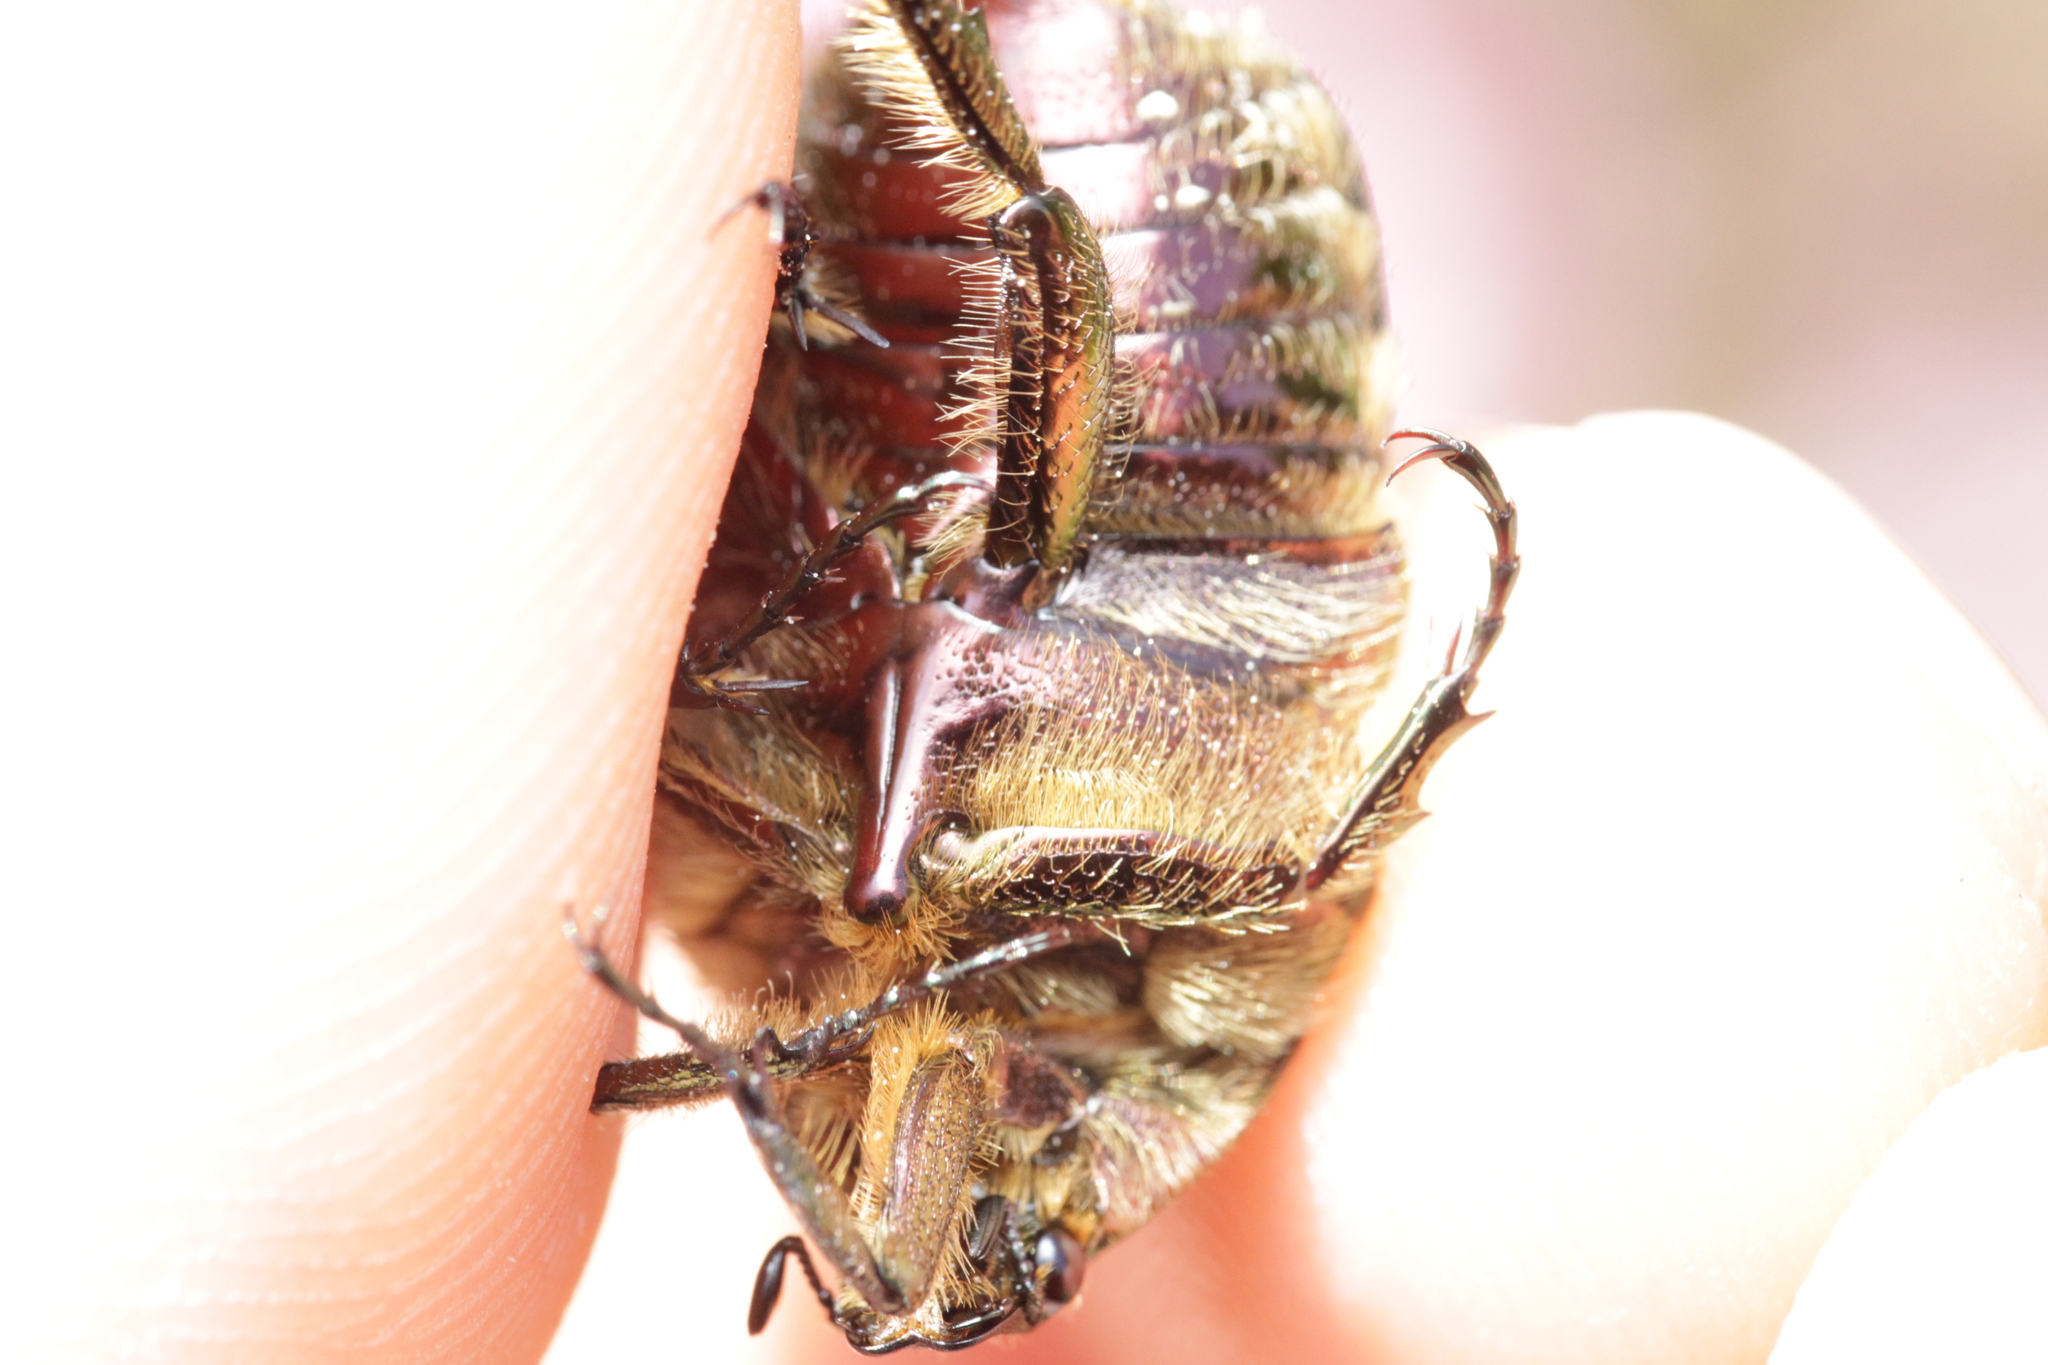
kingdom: Animalia
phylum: Arthropoda
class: Insecta
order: Coleoptera
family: Scarabaeidae
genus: Cetonia
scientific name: Cetonia aurata
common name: Rose chafer
